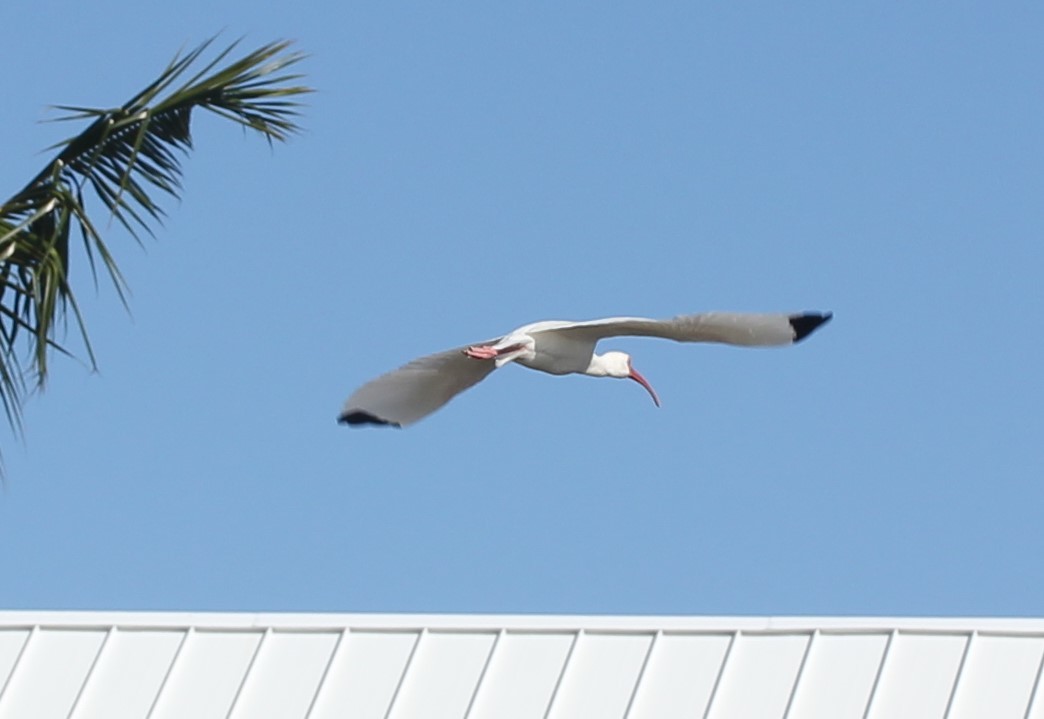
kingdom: Animalia
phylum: Chordata
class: Aves
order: Pelecaniformes
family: Threskiornithidae
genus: Eudocimus
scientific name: Eudocimus albus
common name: White ibis
